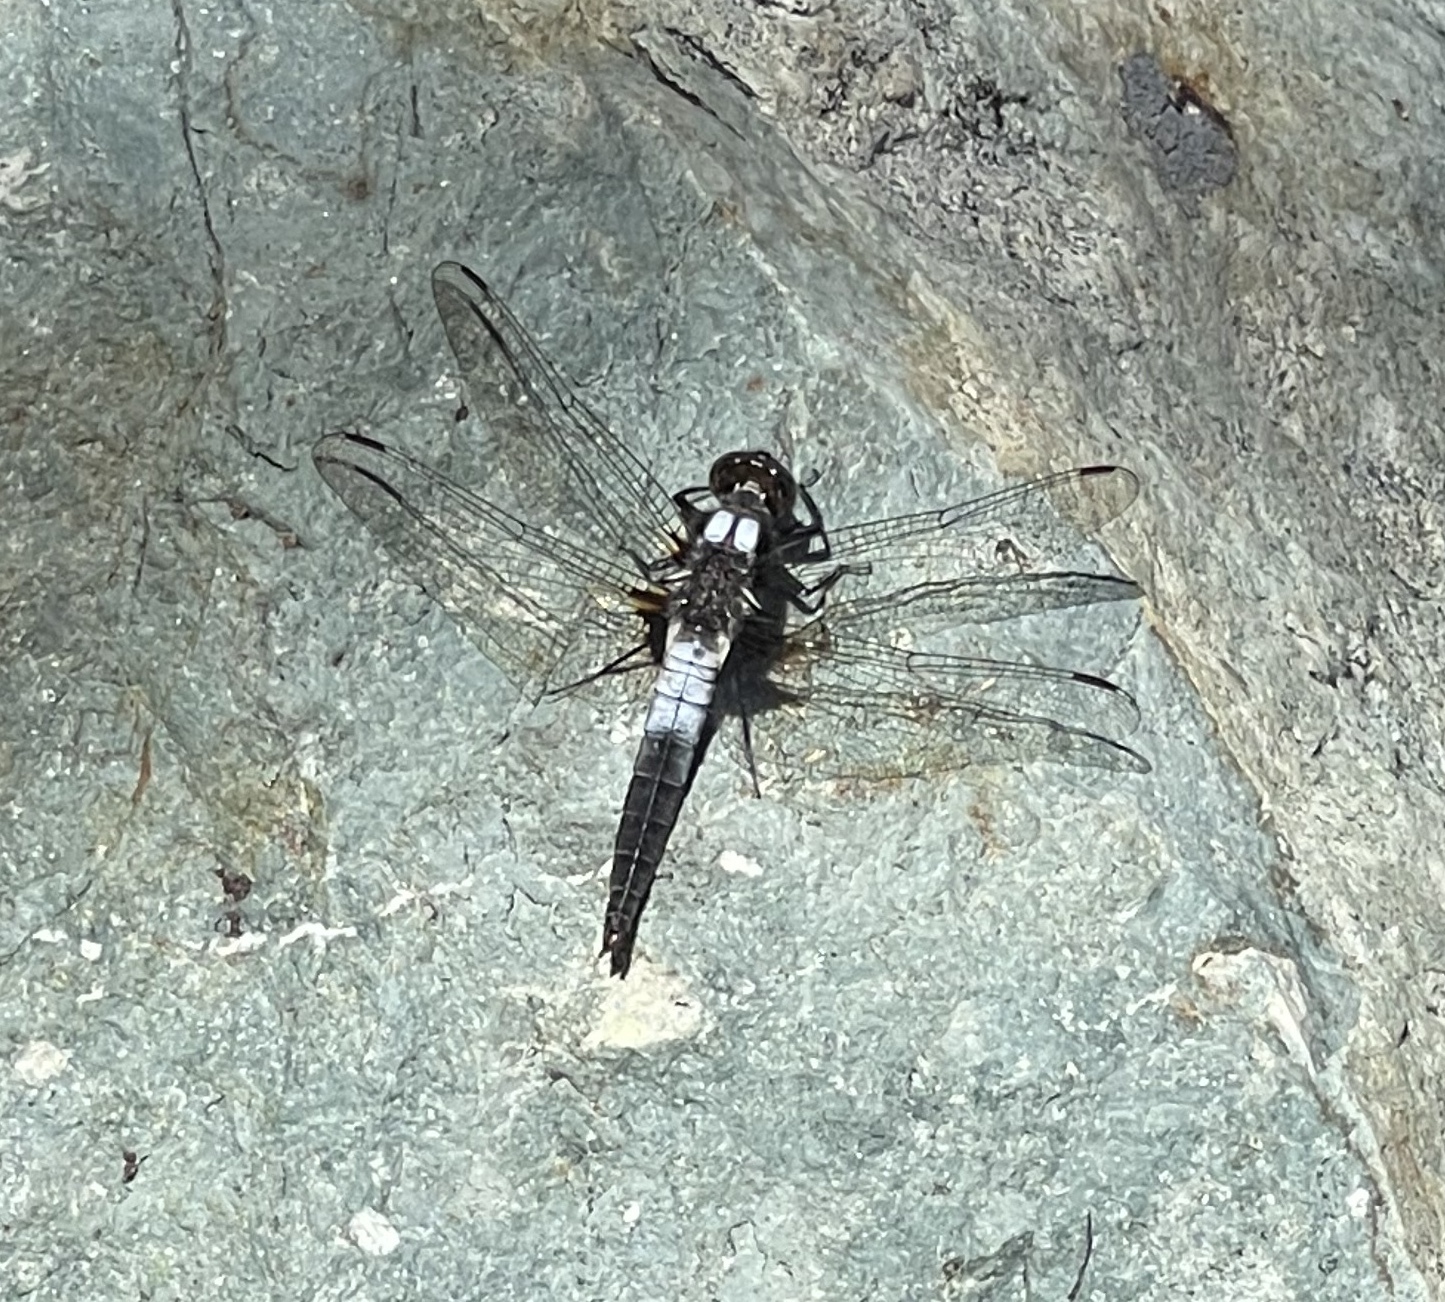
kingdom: Animalia
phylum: Arthropoda
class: Insecta
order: Odonata
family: Libellulidae
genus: Ladona
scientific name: Ladona julia
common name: Chalk-fronted corporal
